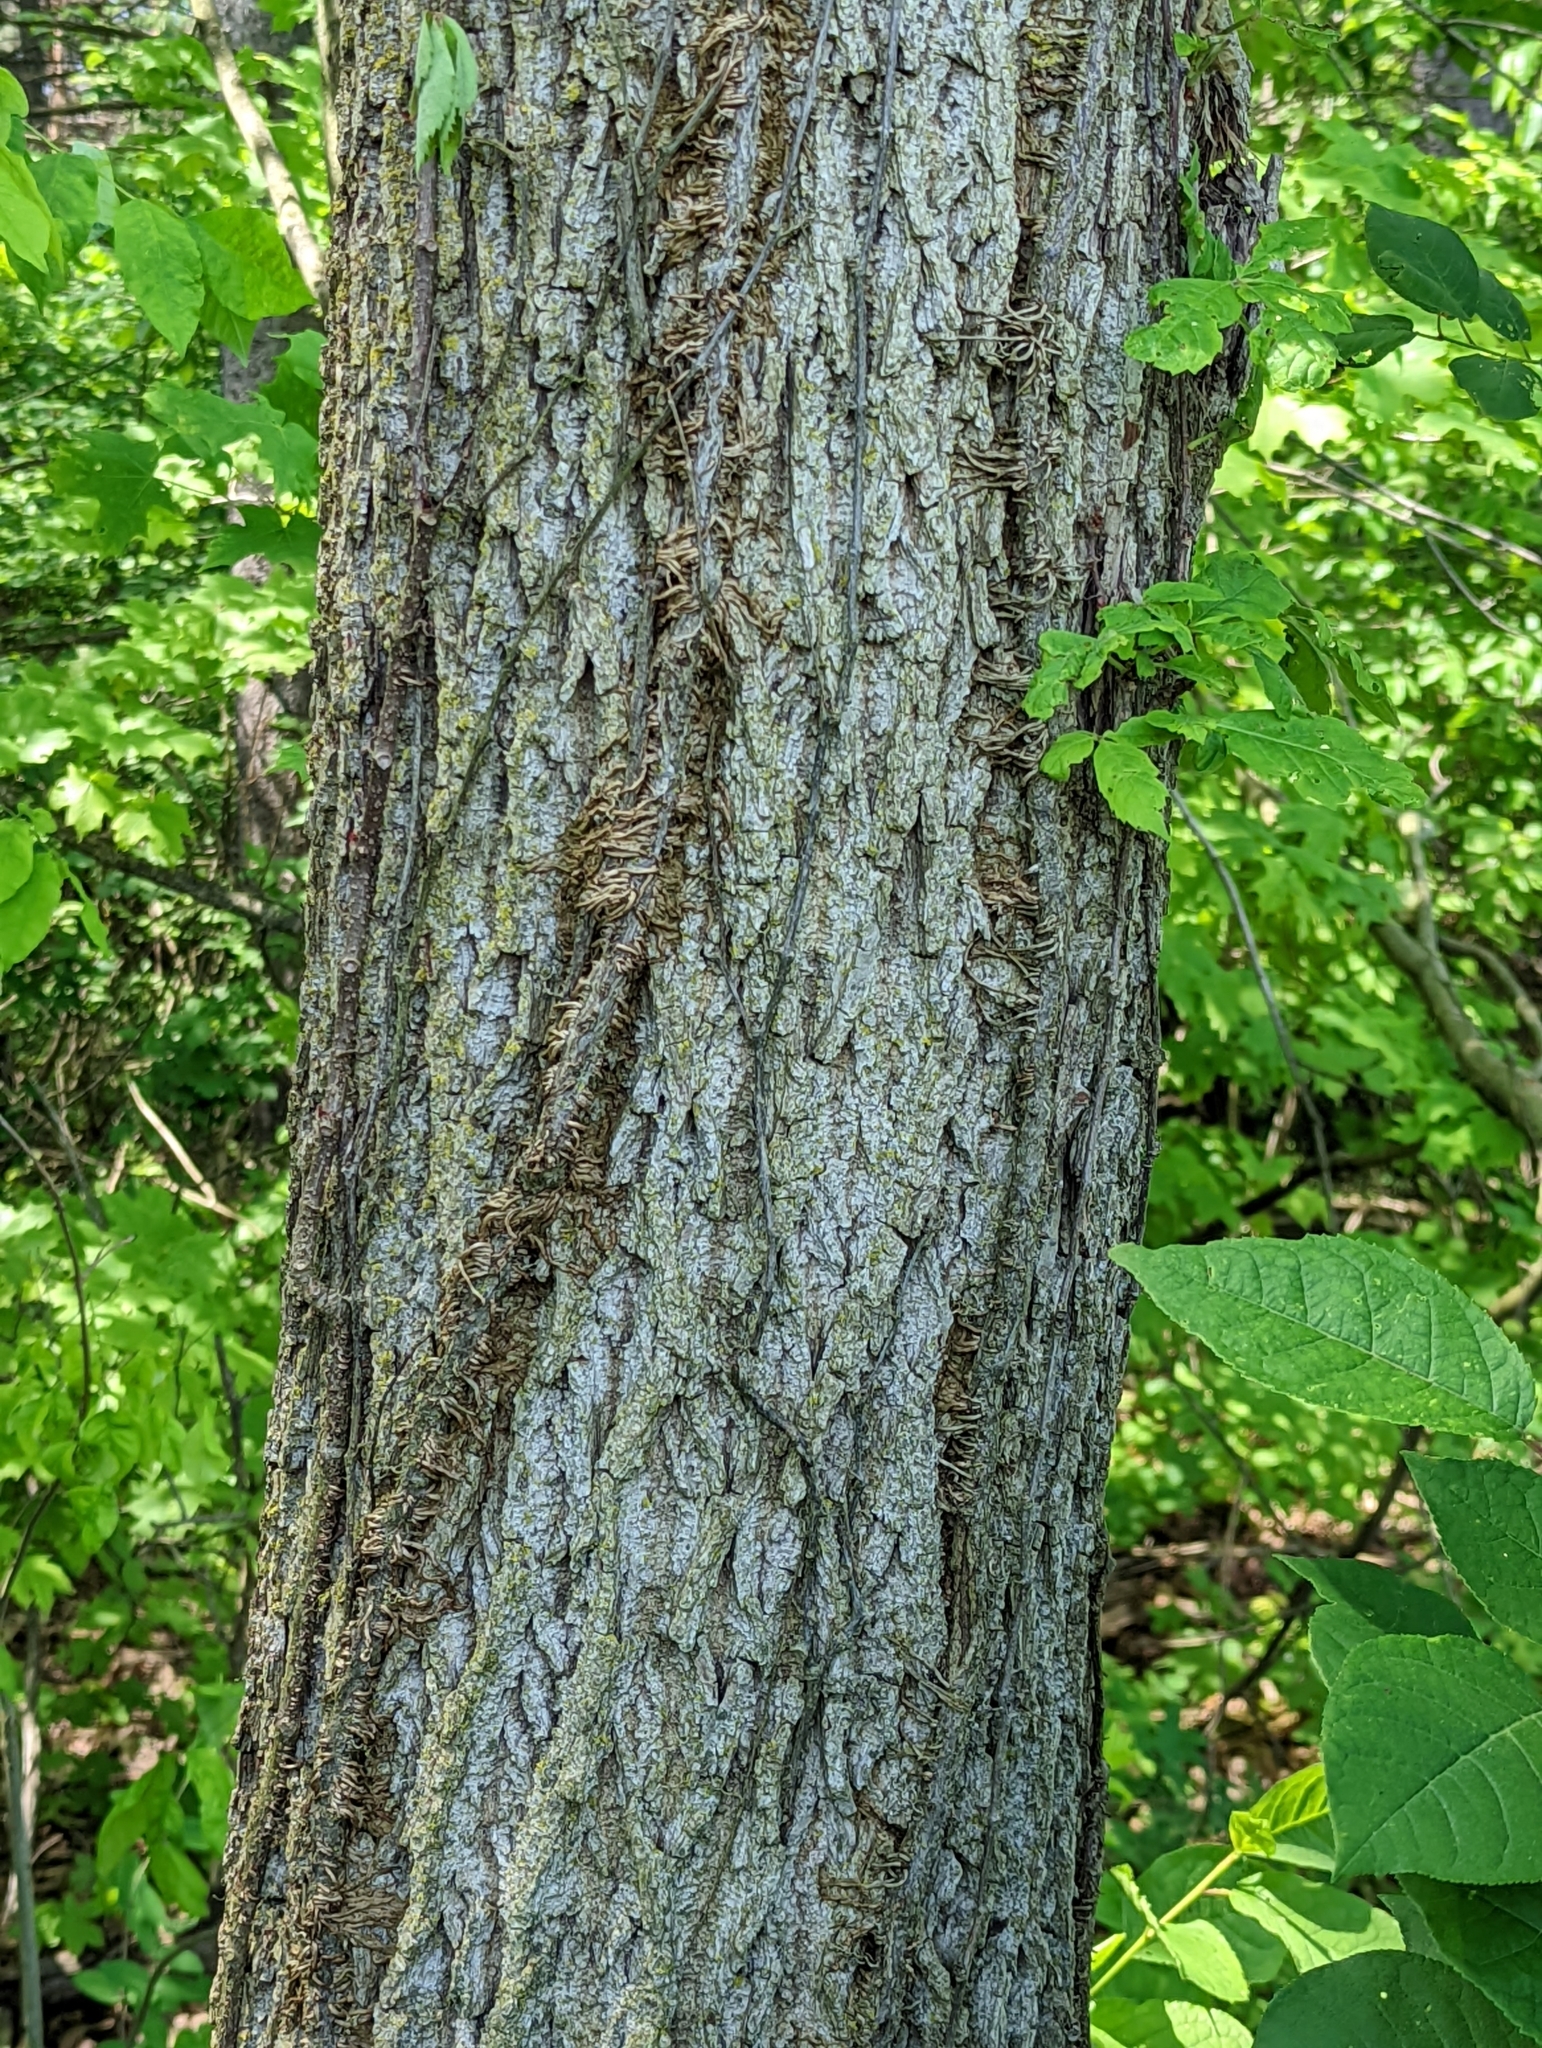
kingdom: Plantae
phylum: Tracheophyta
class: Magnoliopsida
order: Fagales
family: Juglandaceae
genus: Juglans
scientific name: Juglans nigra
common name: Black walnut
